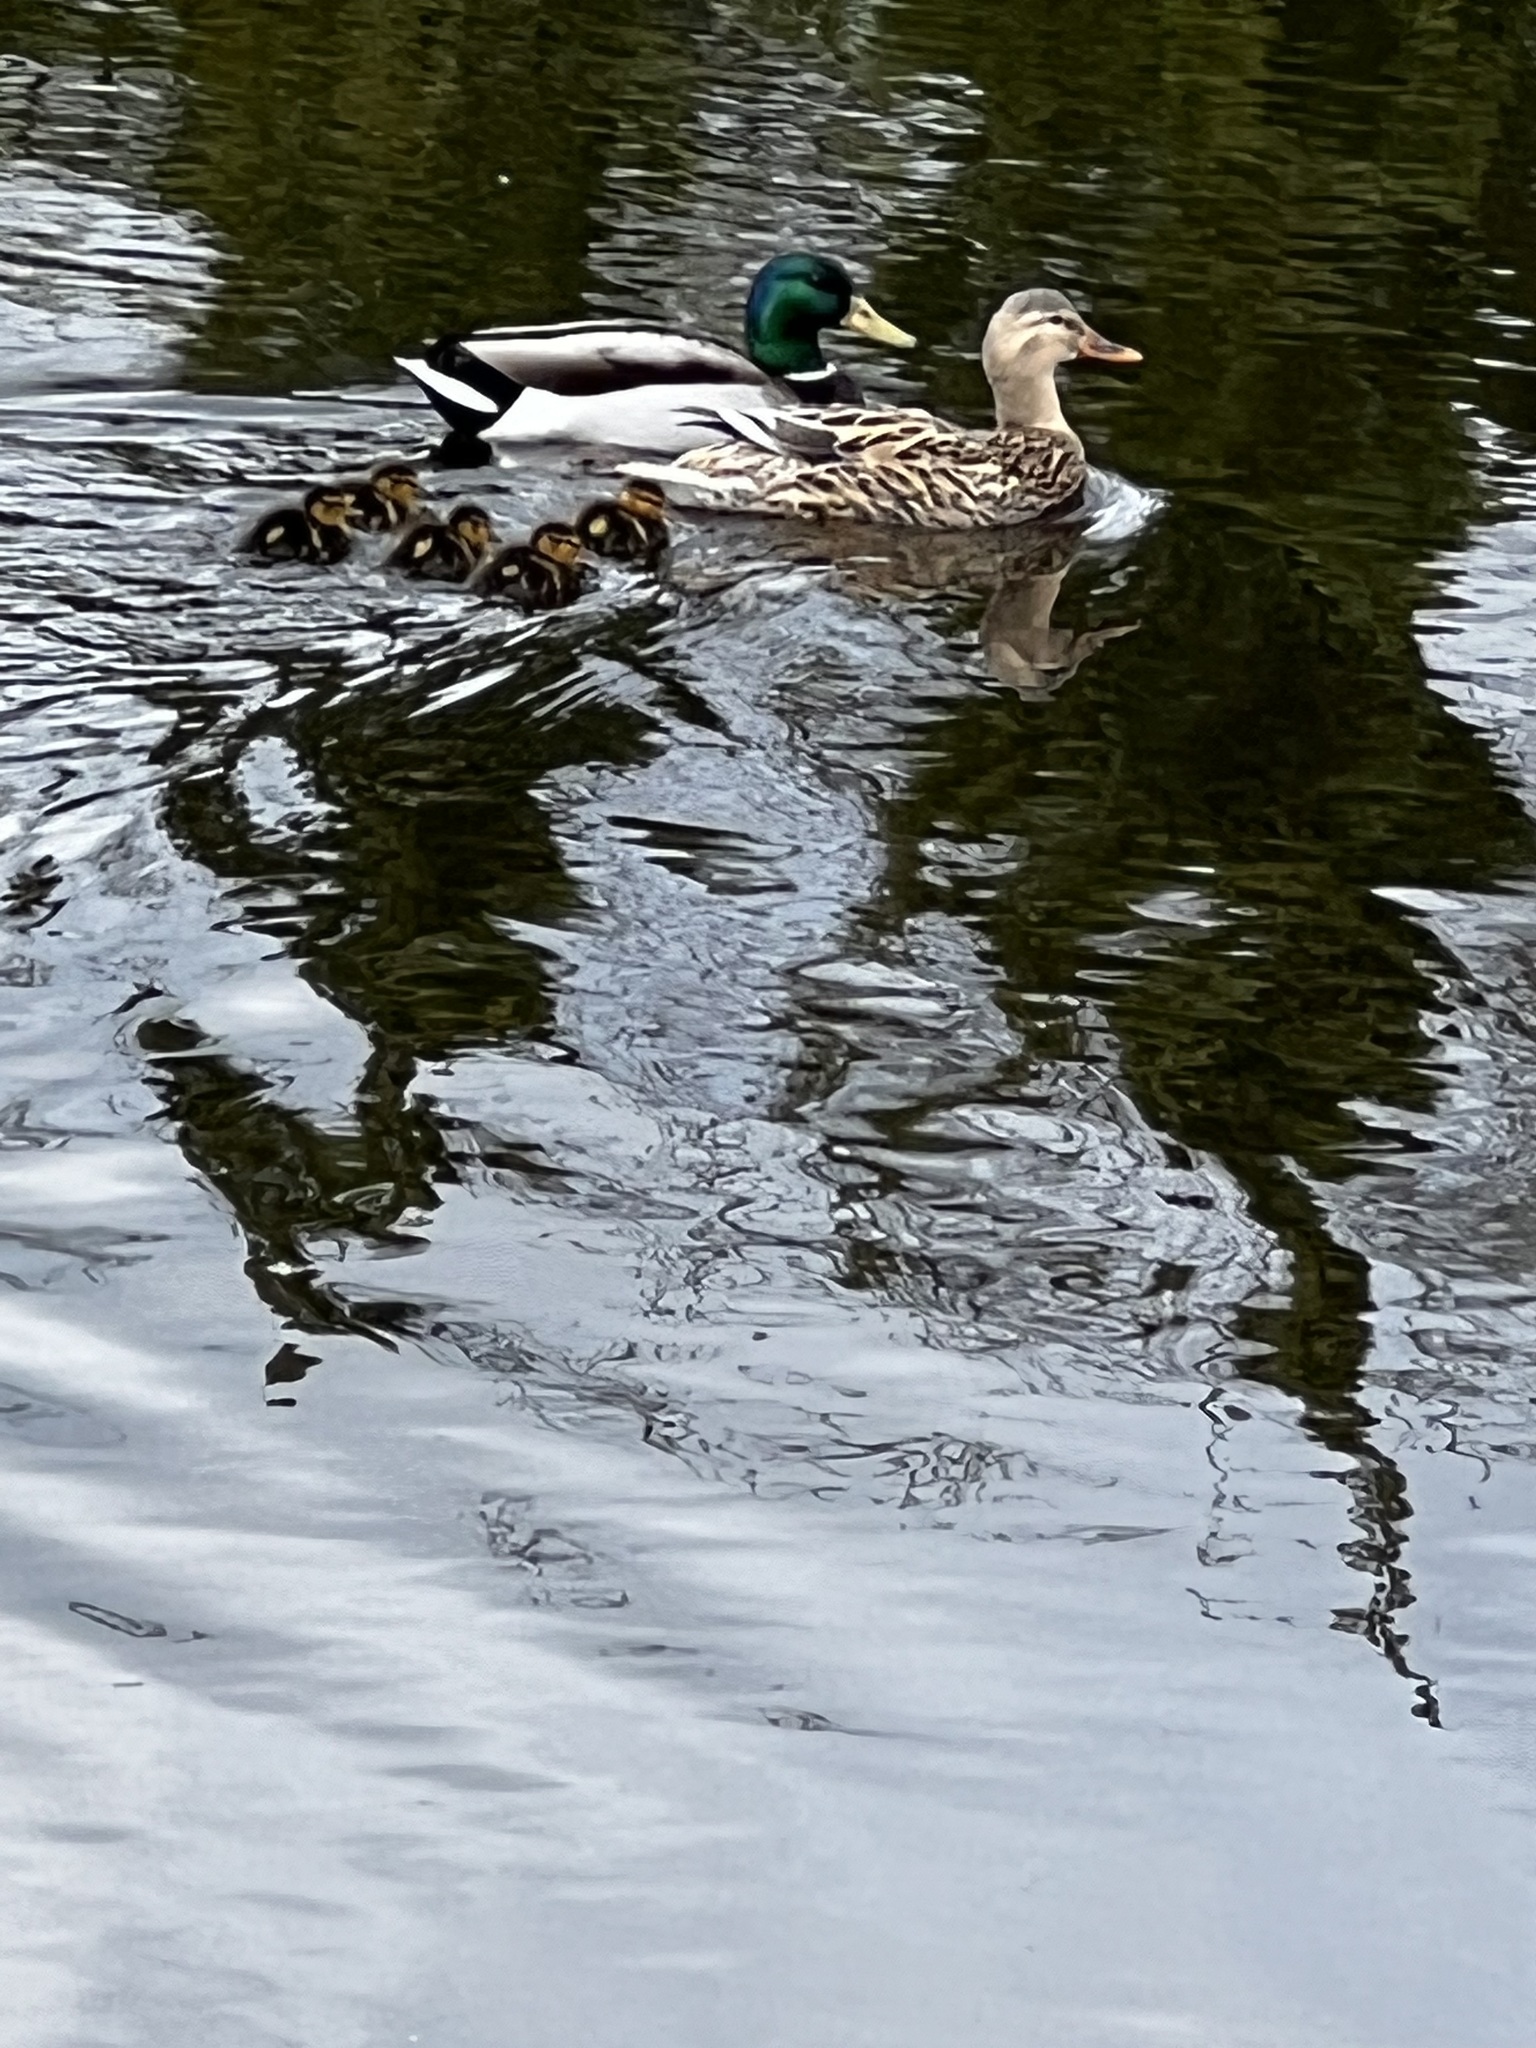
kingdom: Animalia
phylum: Chordata
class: Aves
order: Anseriformes
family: Anatidae
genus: Anas
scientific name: Anas platyrhynchos
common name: Mallard
